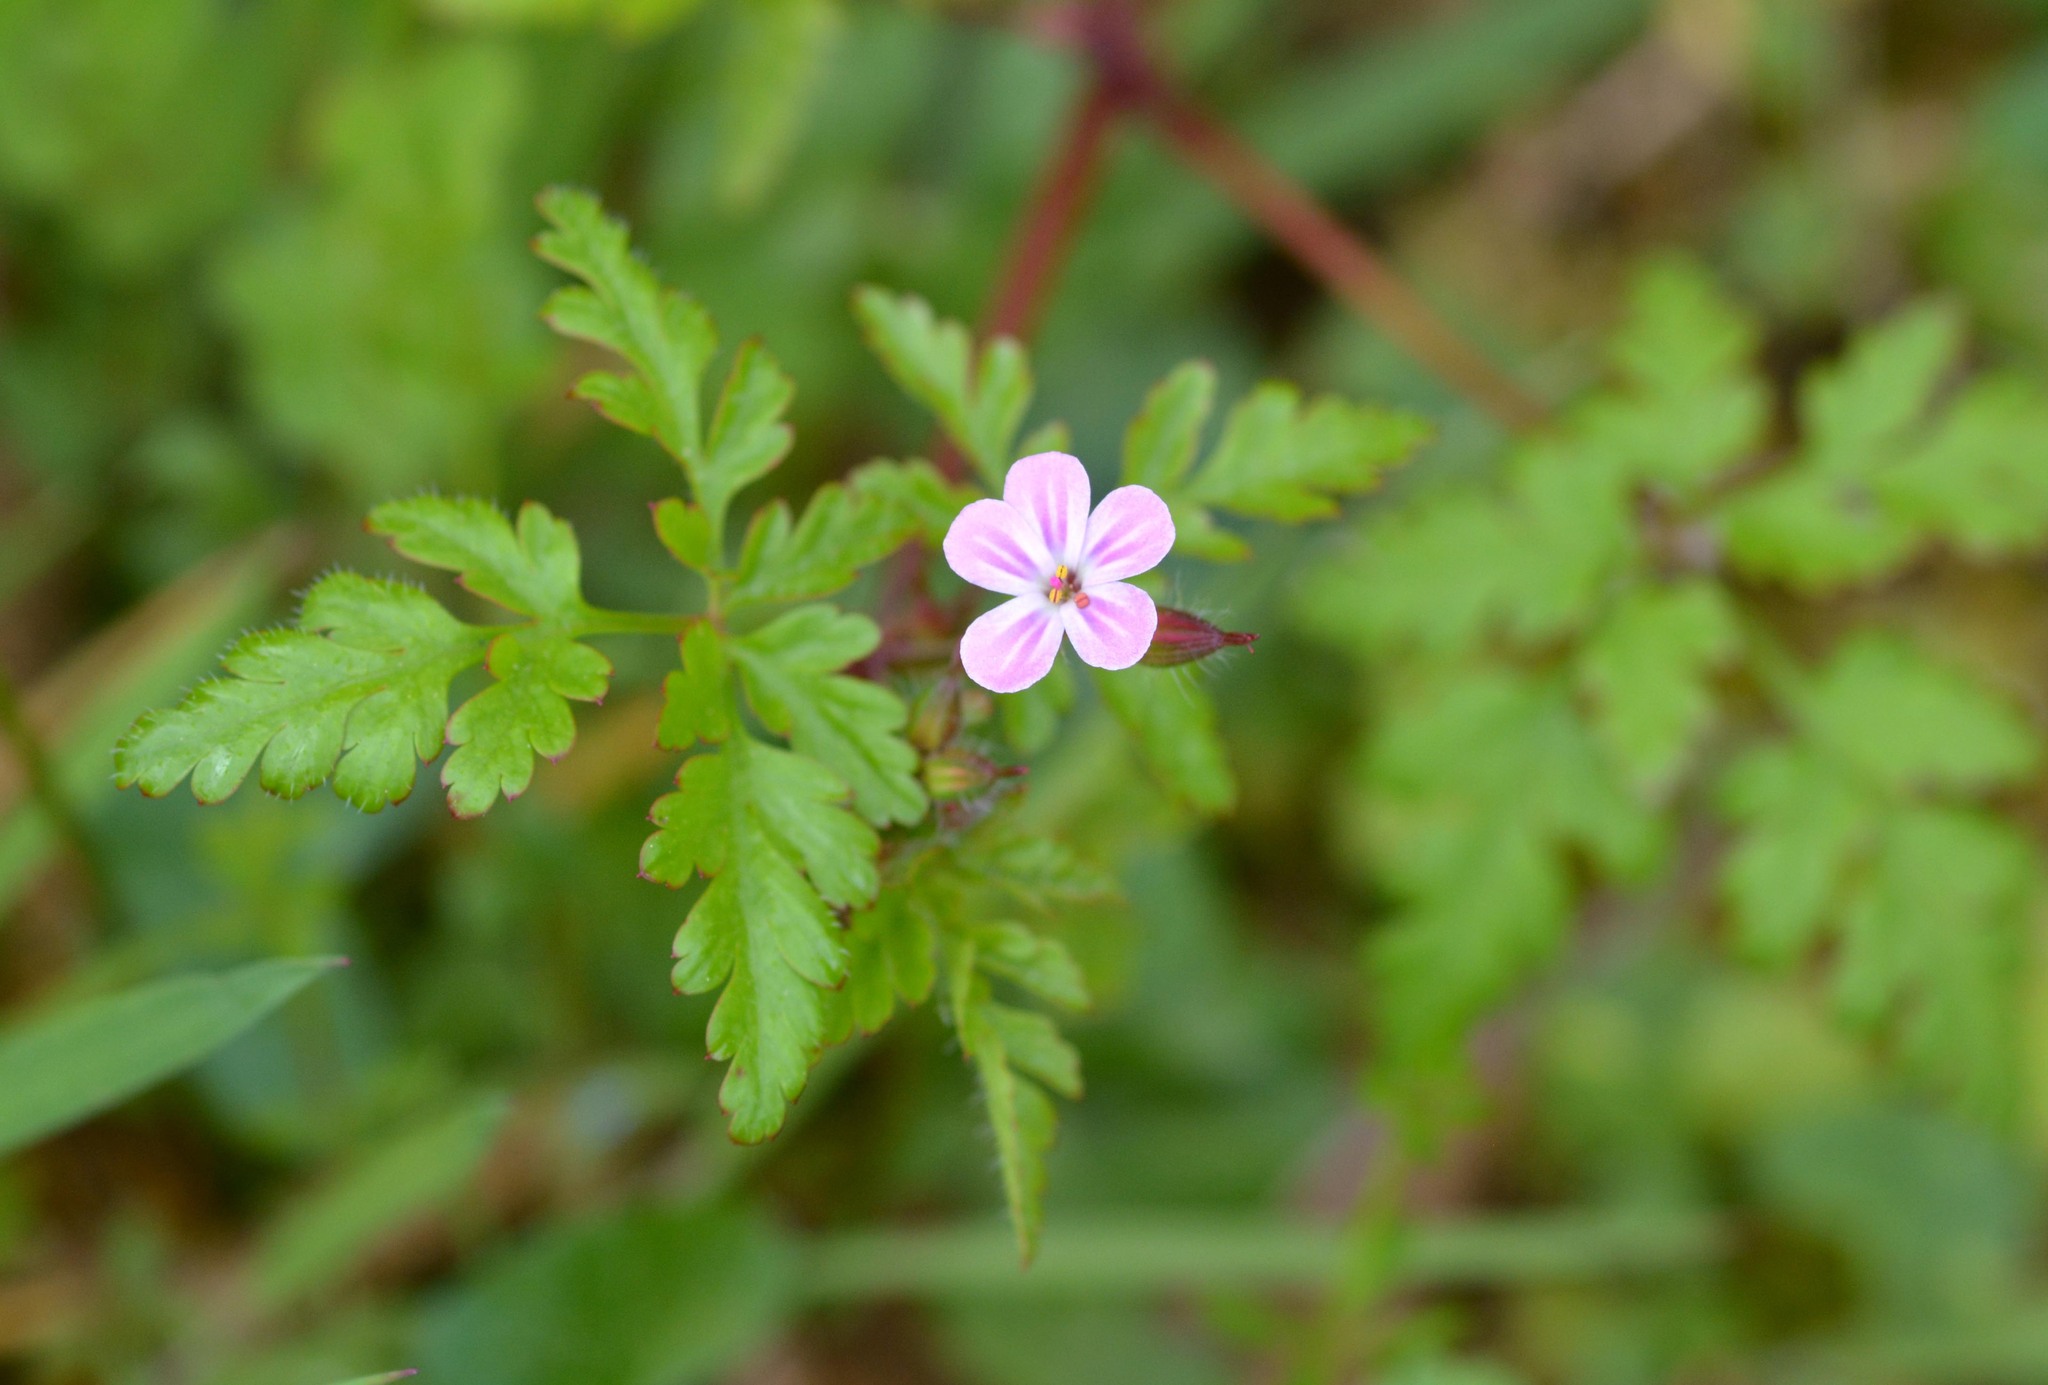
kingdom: Plantae
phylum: Tracheophyta
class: Magnoliopsida
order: Geraniales
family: Geraniaceae
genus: Geranium
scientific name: Geranium robertianum
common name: Herb-robert
